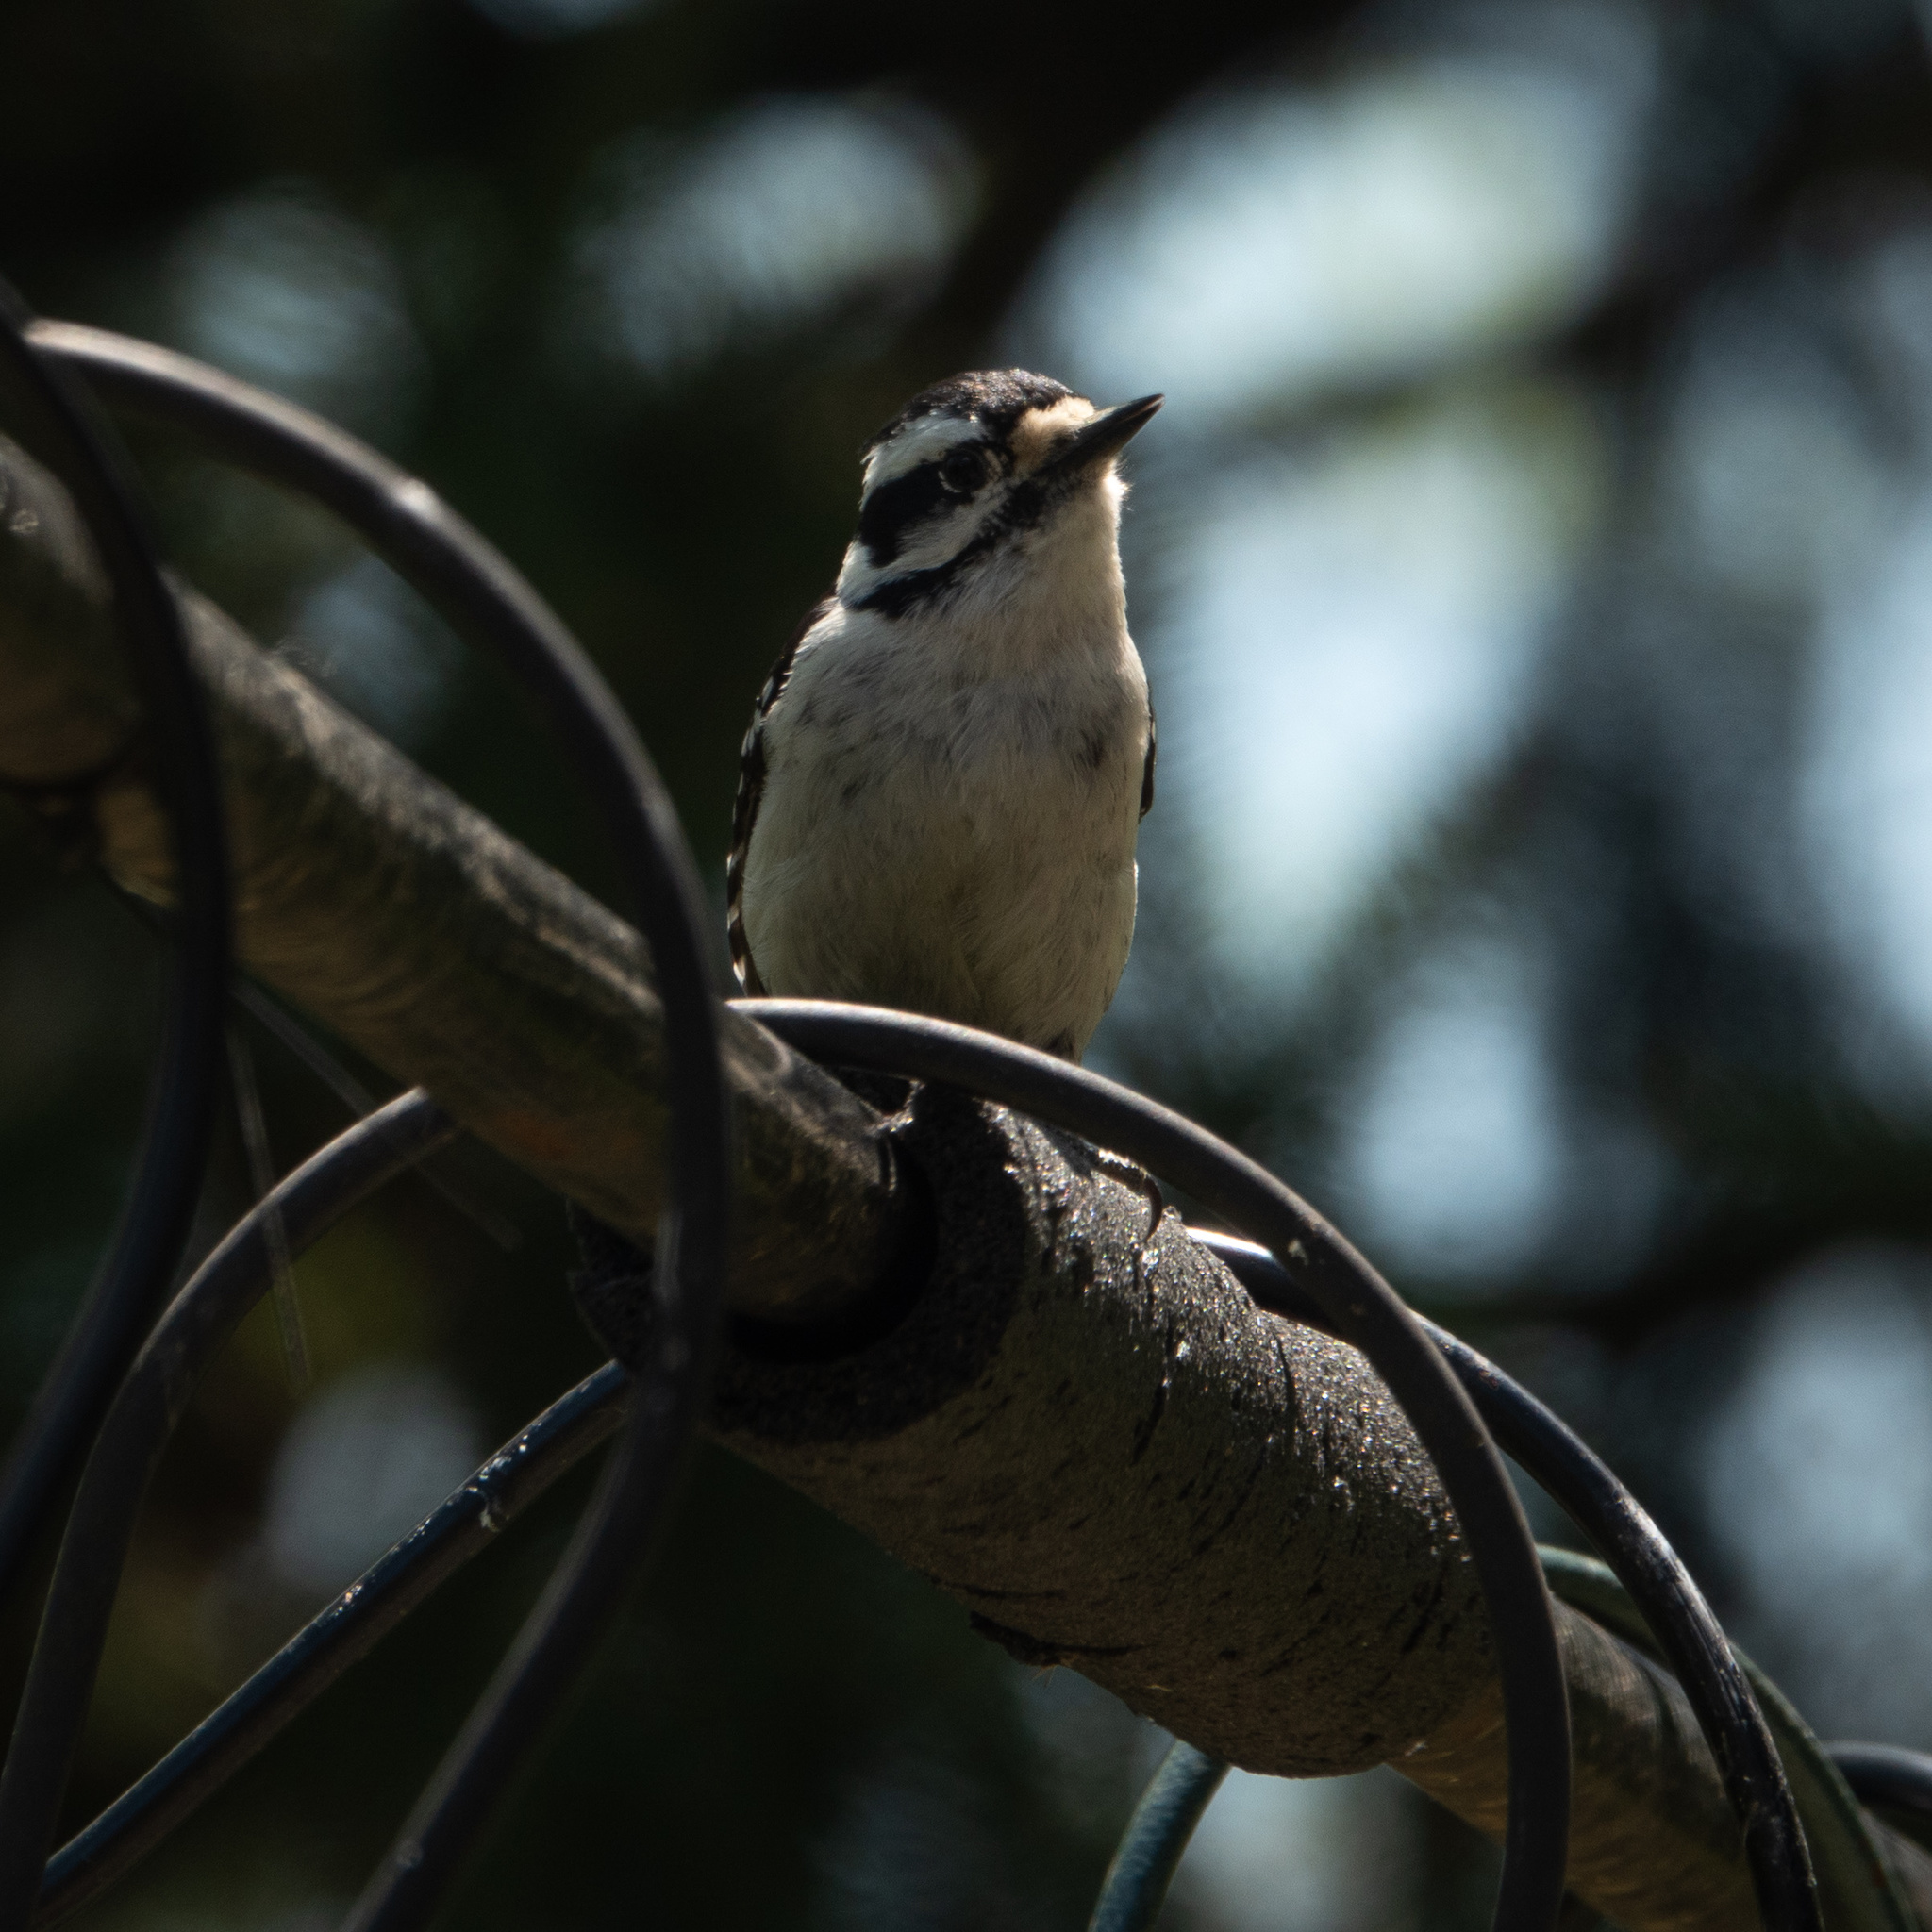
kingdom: Animalia
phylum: Chordata
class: Aves
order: Piciformes
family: Picidae
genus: Dryobates
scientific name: Dryobates pubescens
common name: Downy woodpecker
